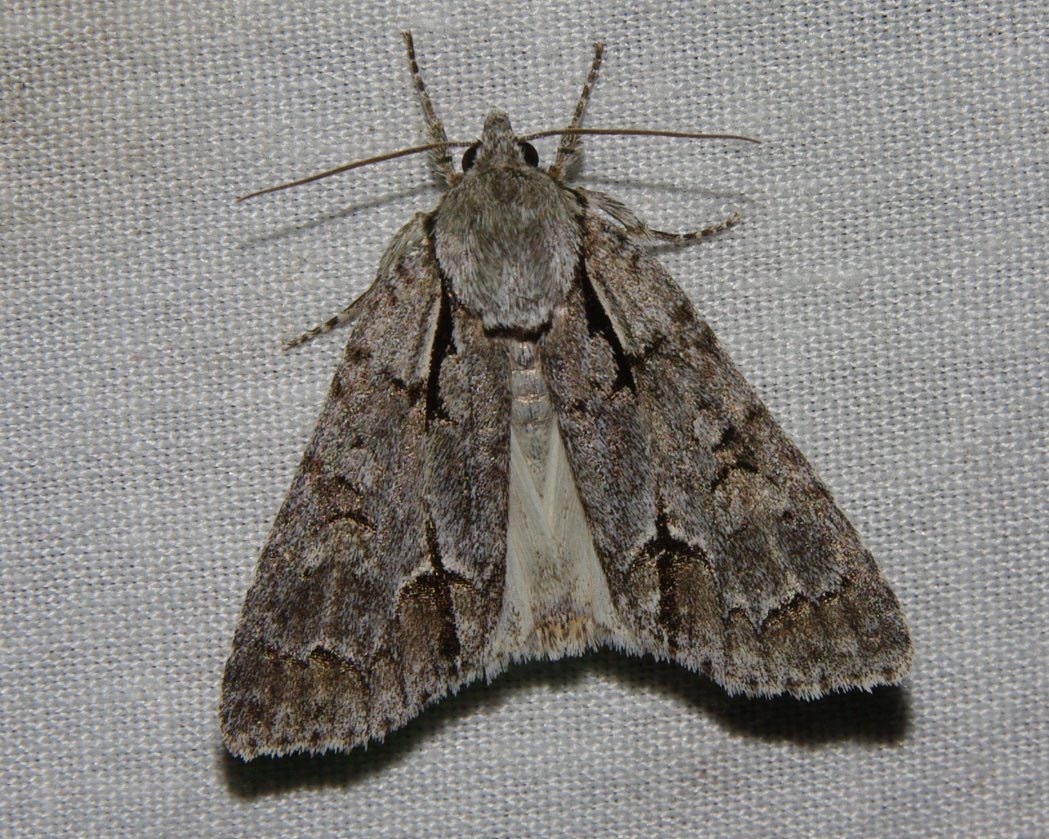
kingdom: Animalia
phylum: Arthropoda
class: Insecta
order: Lepidoptera
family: Noctuidae
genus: Acronicta
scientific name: Acronicta grisea
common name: Gray dagger
